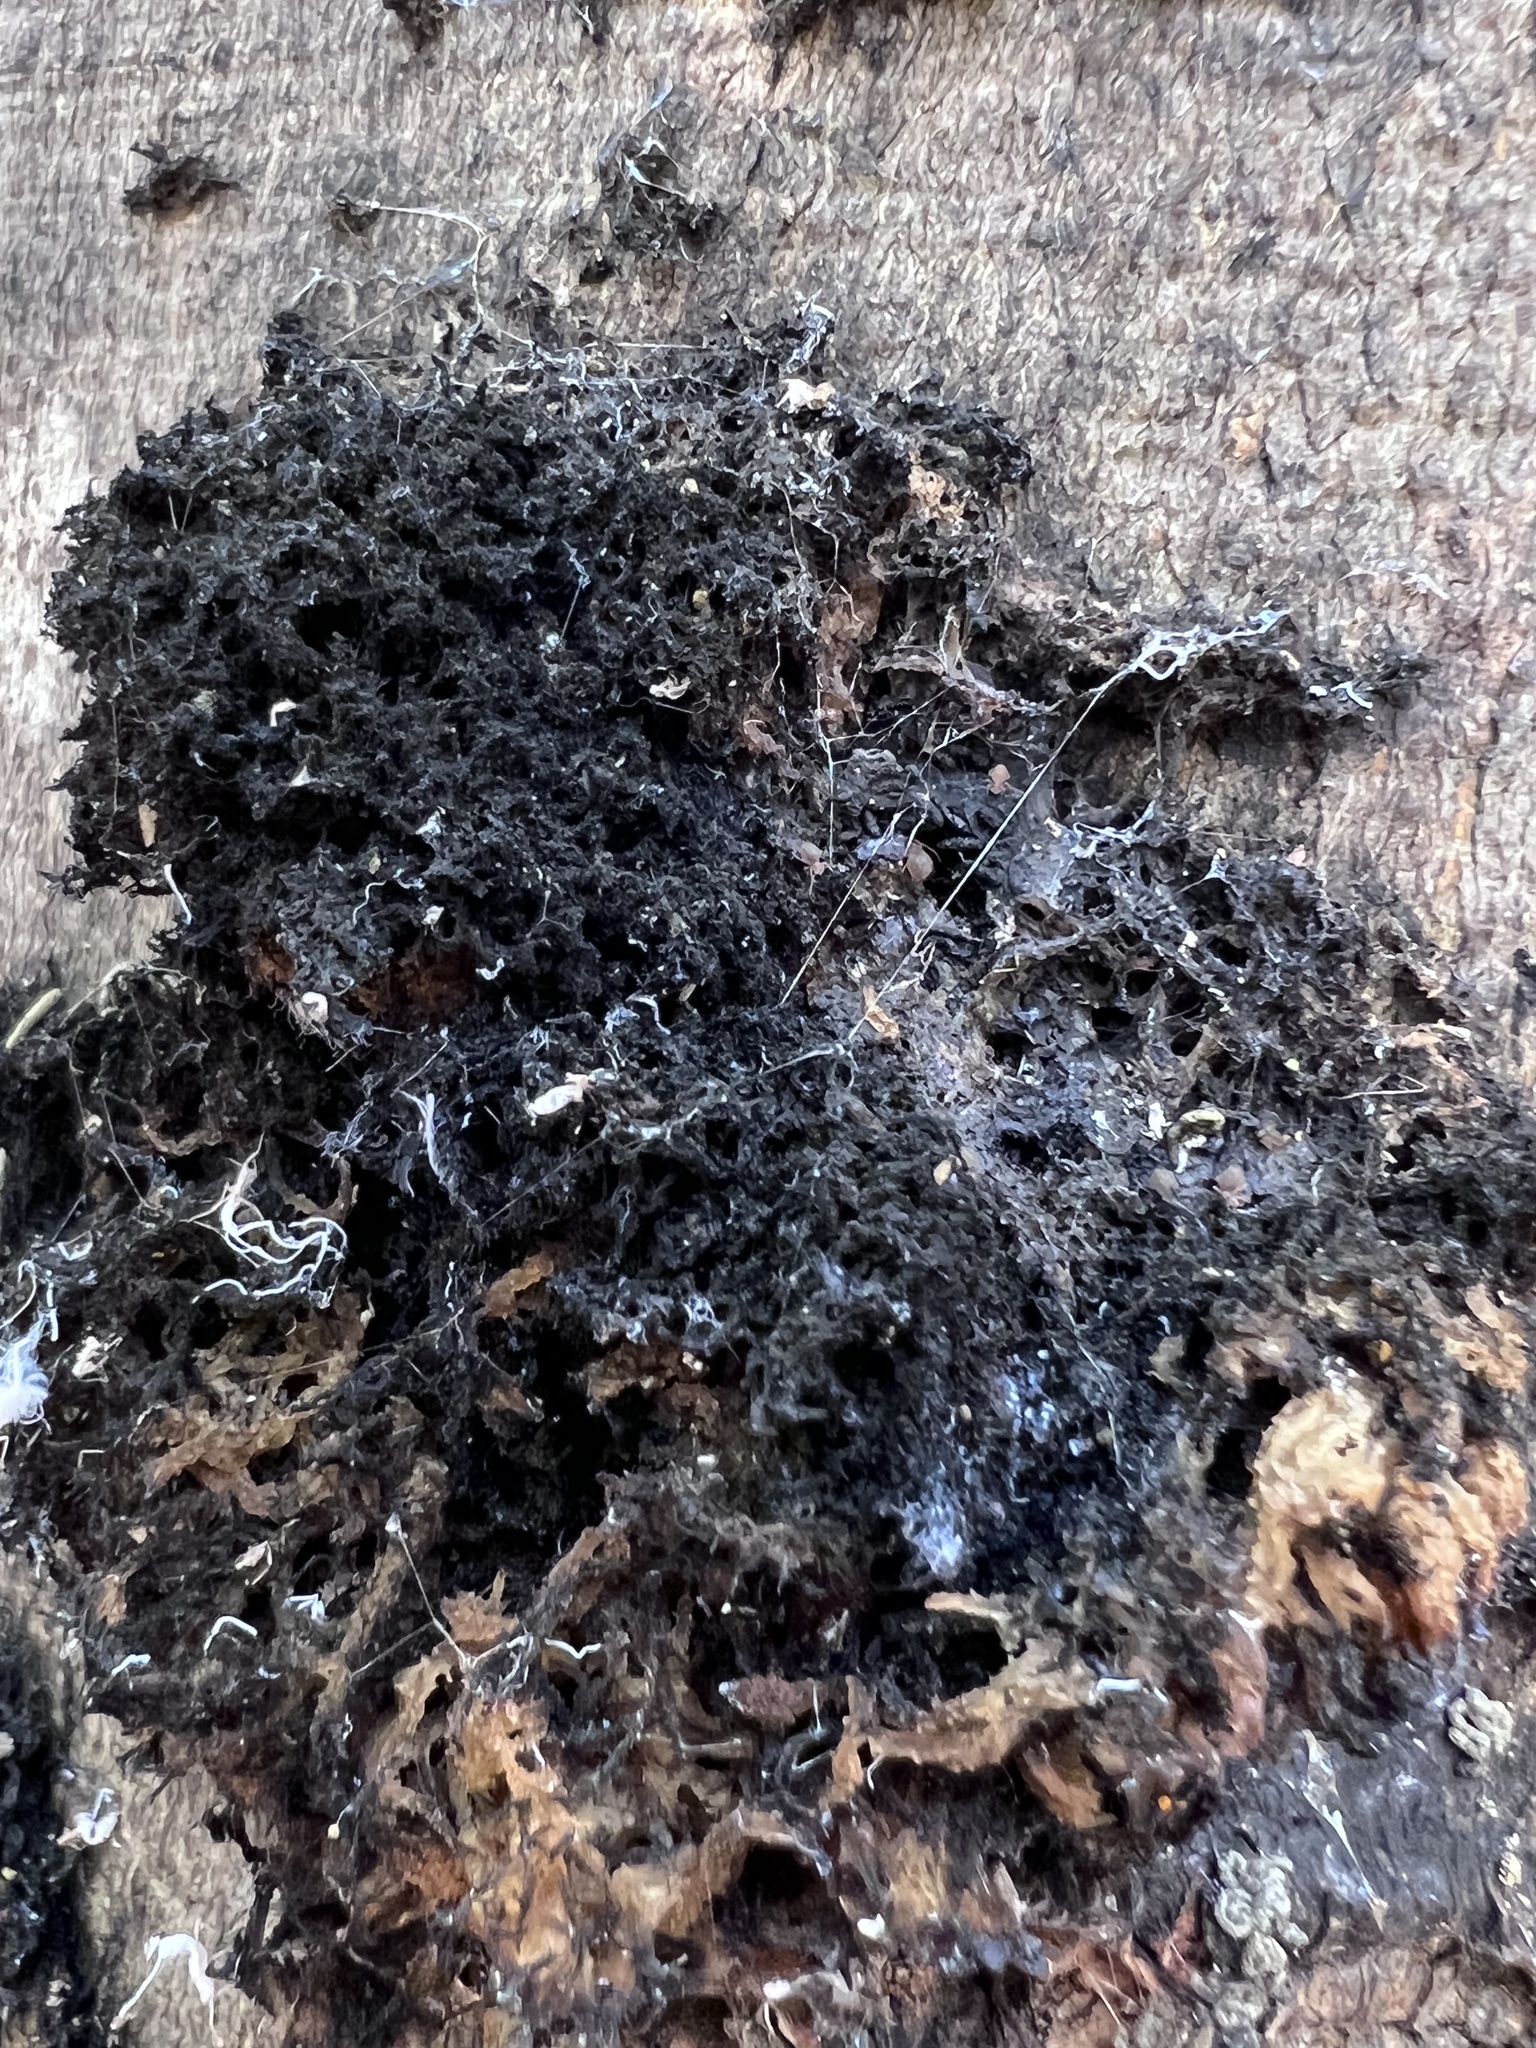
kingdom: Fungi
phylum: Ascomycota
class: Dothideomycetes
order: Capnodiales
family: Capnodiaceae
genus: Scorias
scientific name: Scorias spongiosa
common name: Black sooty mold
